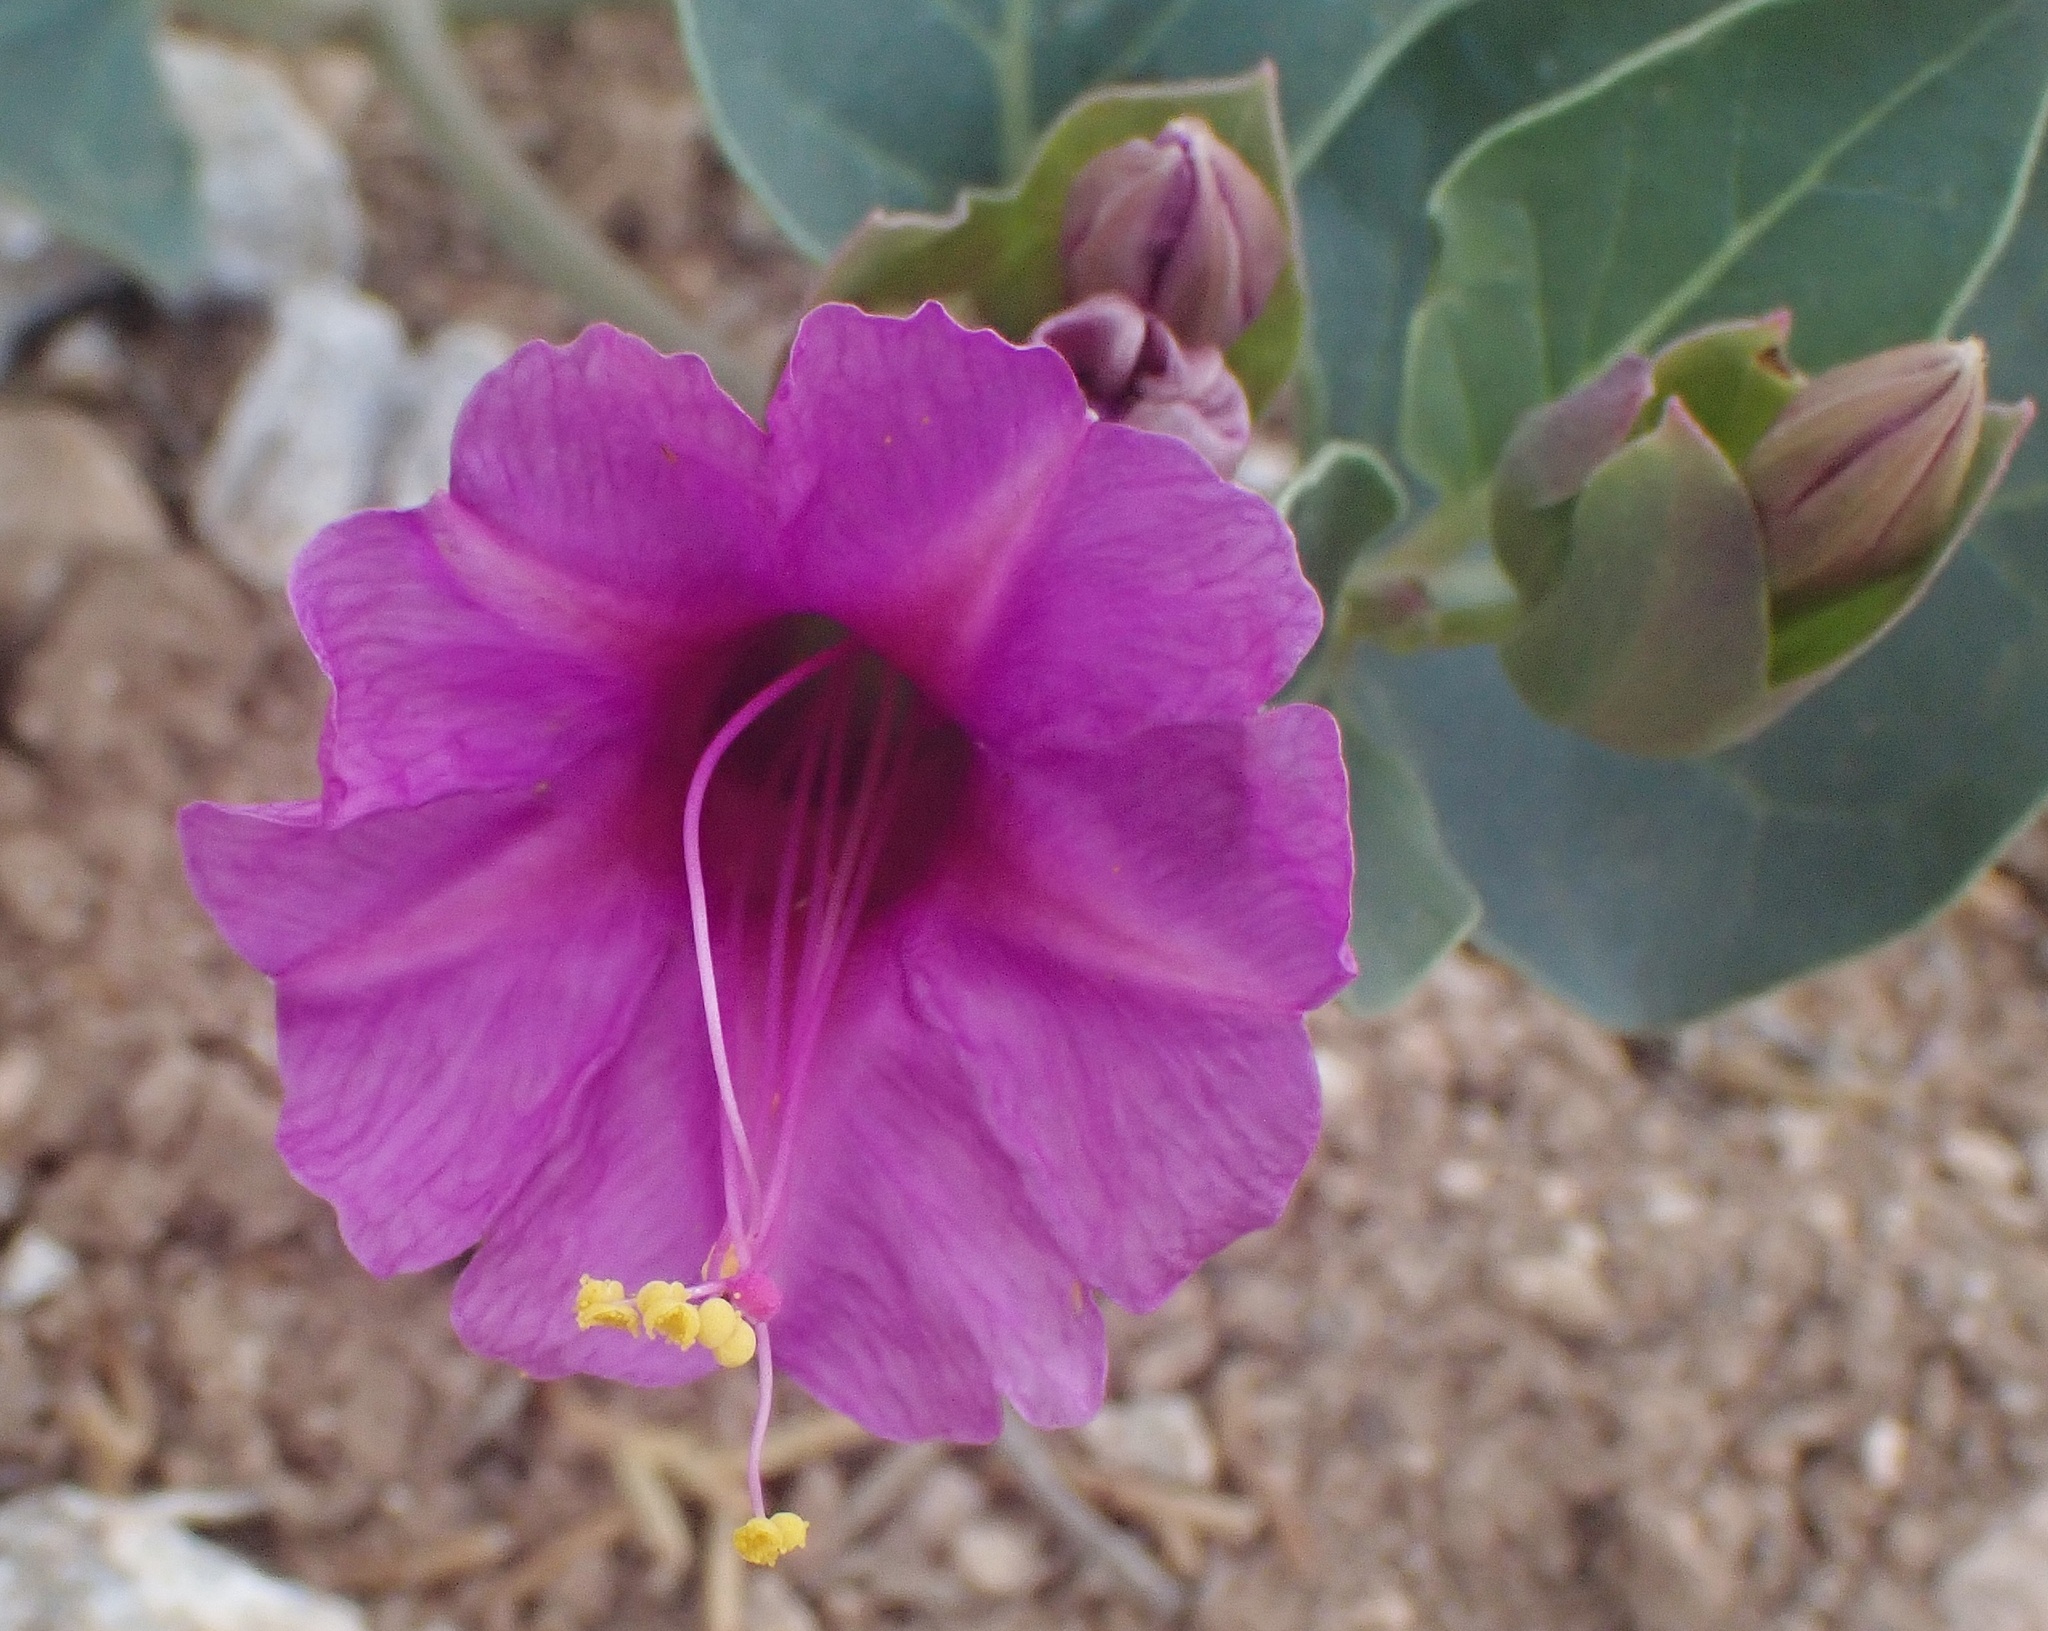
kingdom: Plantae
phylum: Tracheophyta
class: Magnoliopsida
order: Caryophyllales
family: Nyctaginaceae
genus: Mirabilis
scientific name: Mirabilis multiflora
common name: Froebel's four-o'clock
